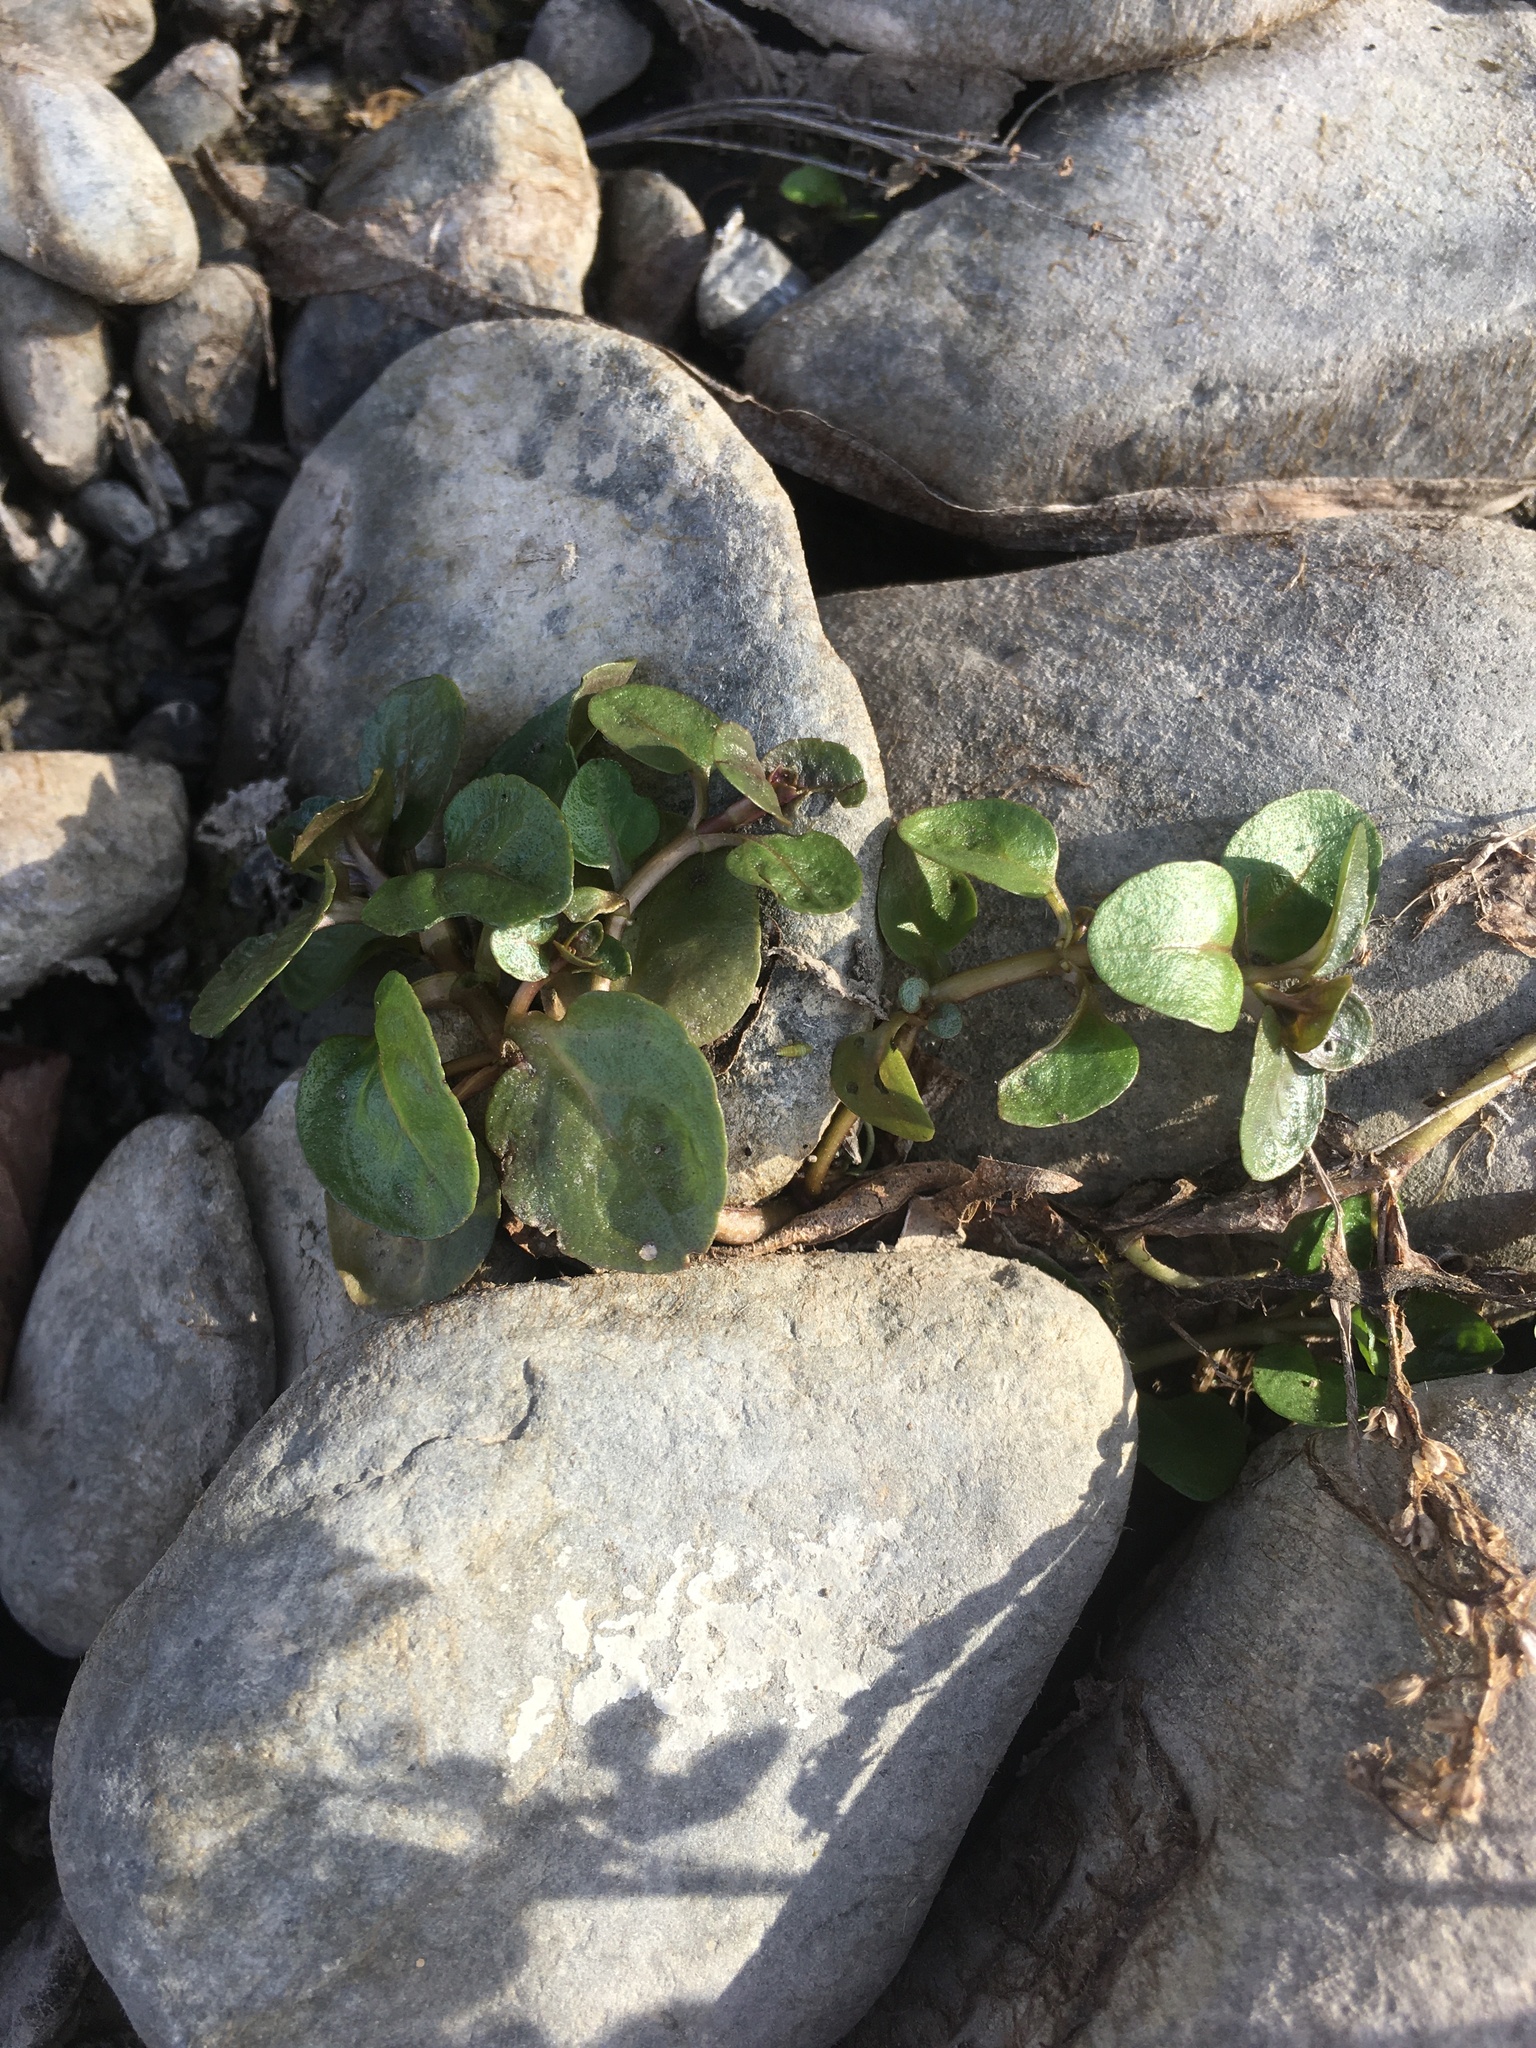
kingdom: Plantae
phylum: Tracheophyta
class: Magnoliopsida
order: Lamiales
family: Plantaginaceae
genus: Veronica
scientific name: Veronica serpyllifolia
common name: Thyme-leaved speedwell
